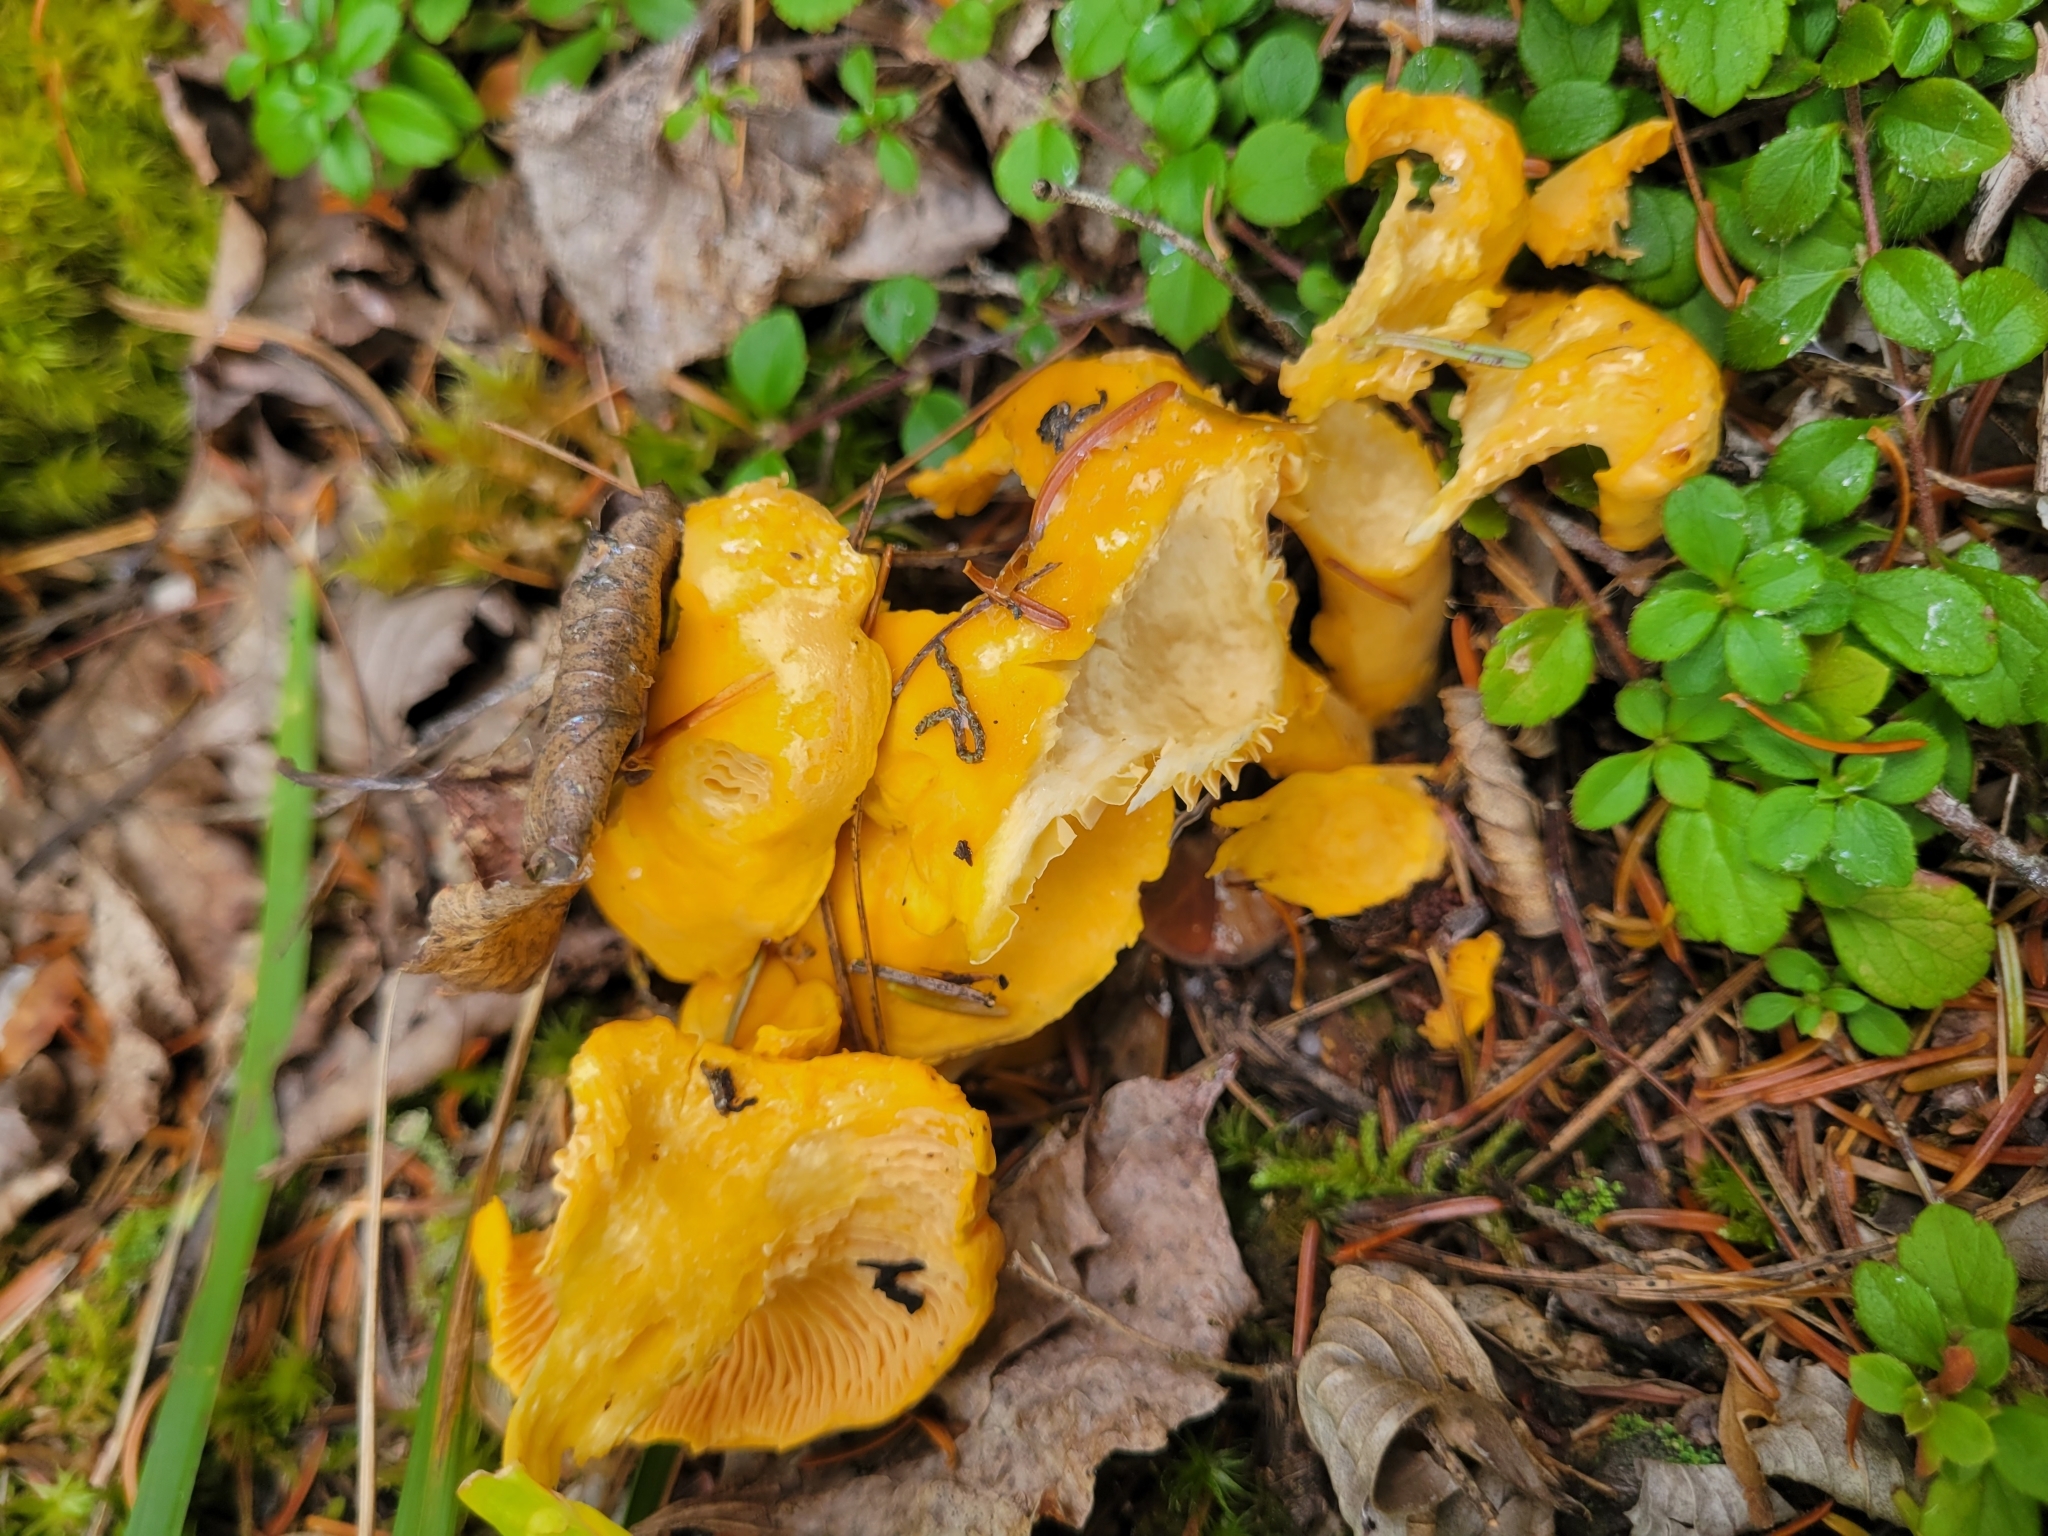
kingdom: Fungi
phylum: Basidiomycota
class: Agaricomycetes
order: Cantharellales
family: Hydnaceae
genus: Cantharellus
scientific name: Cantharellus enelensis
